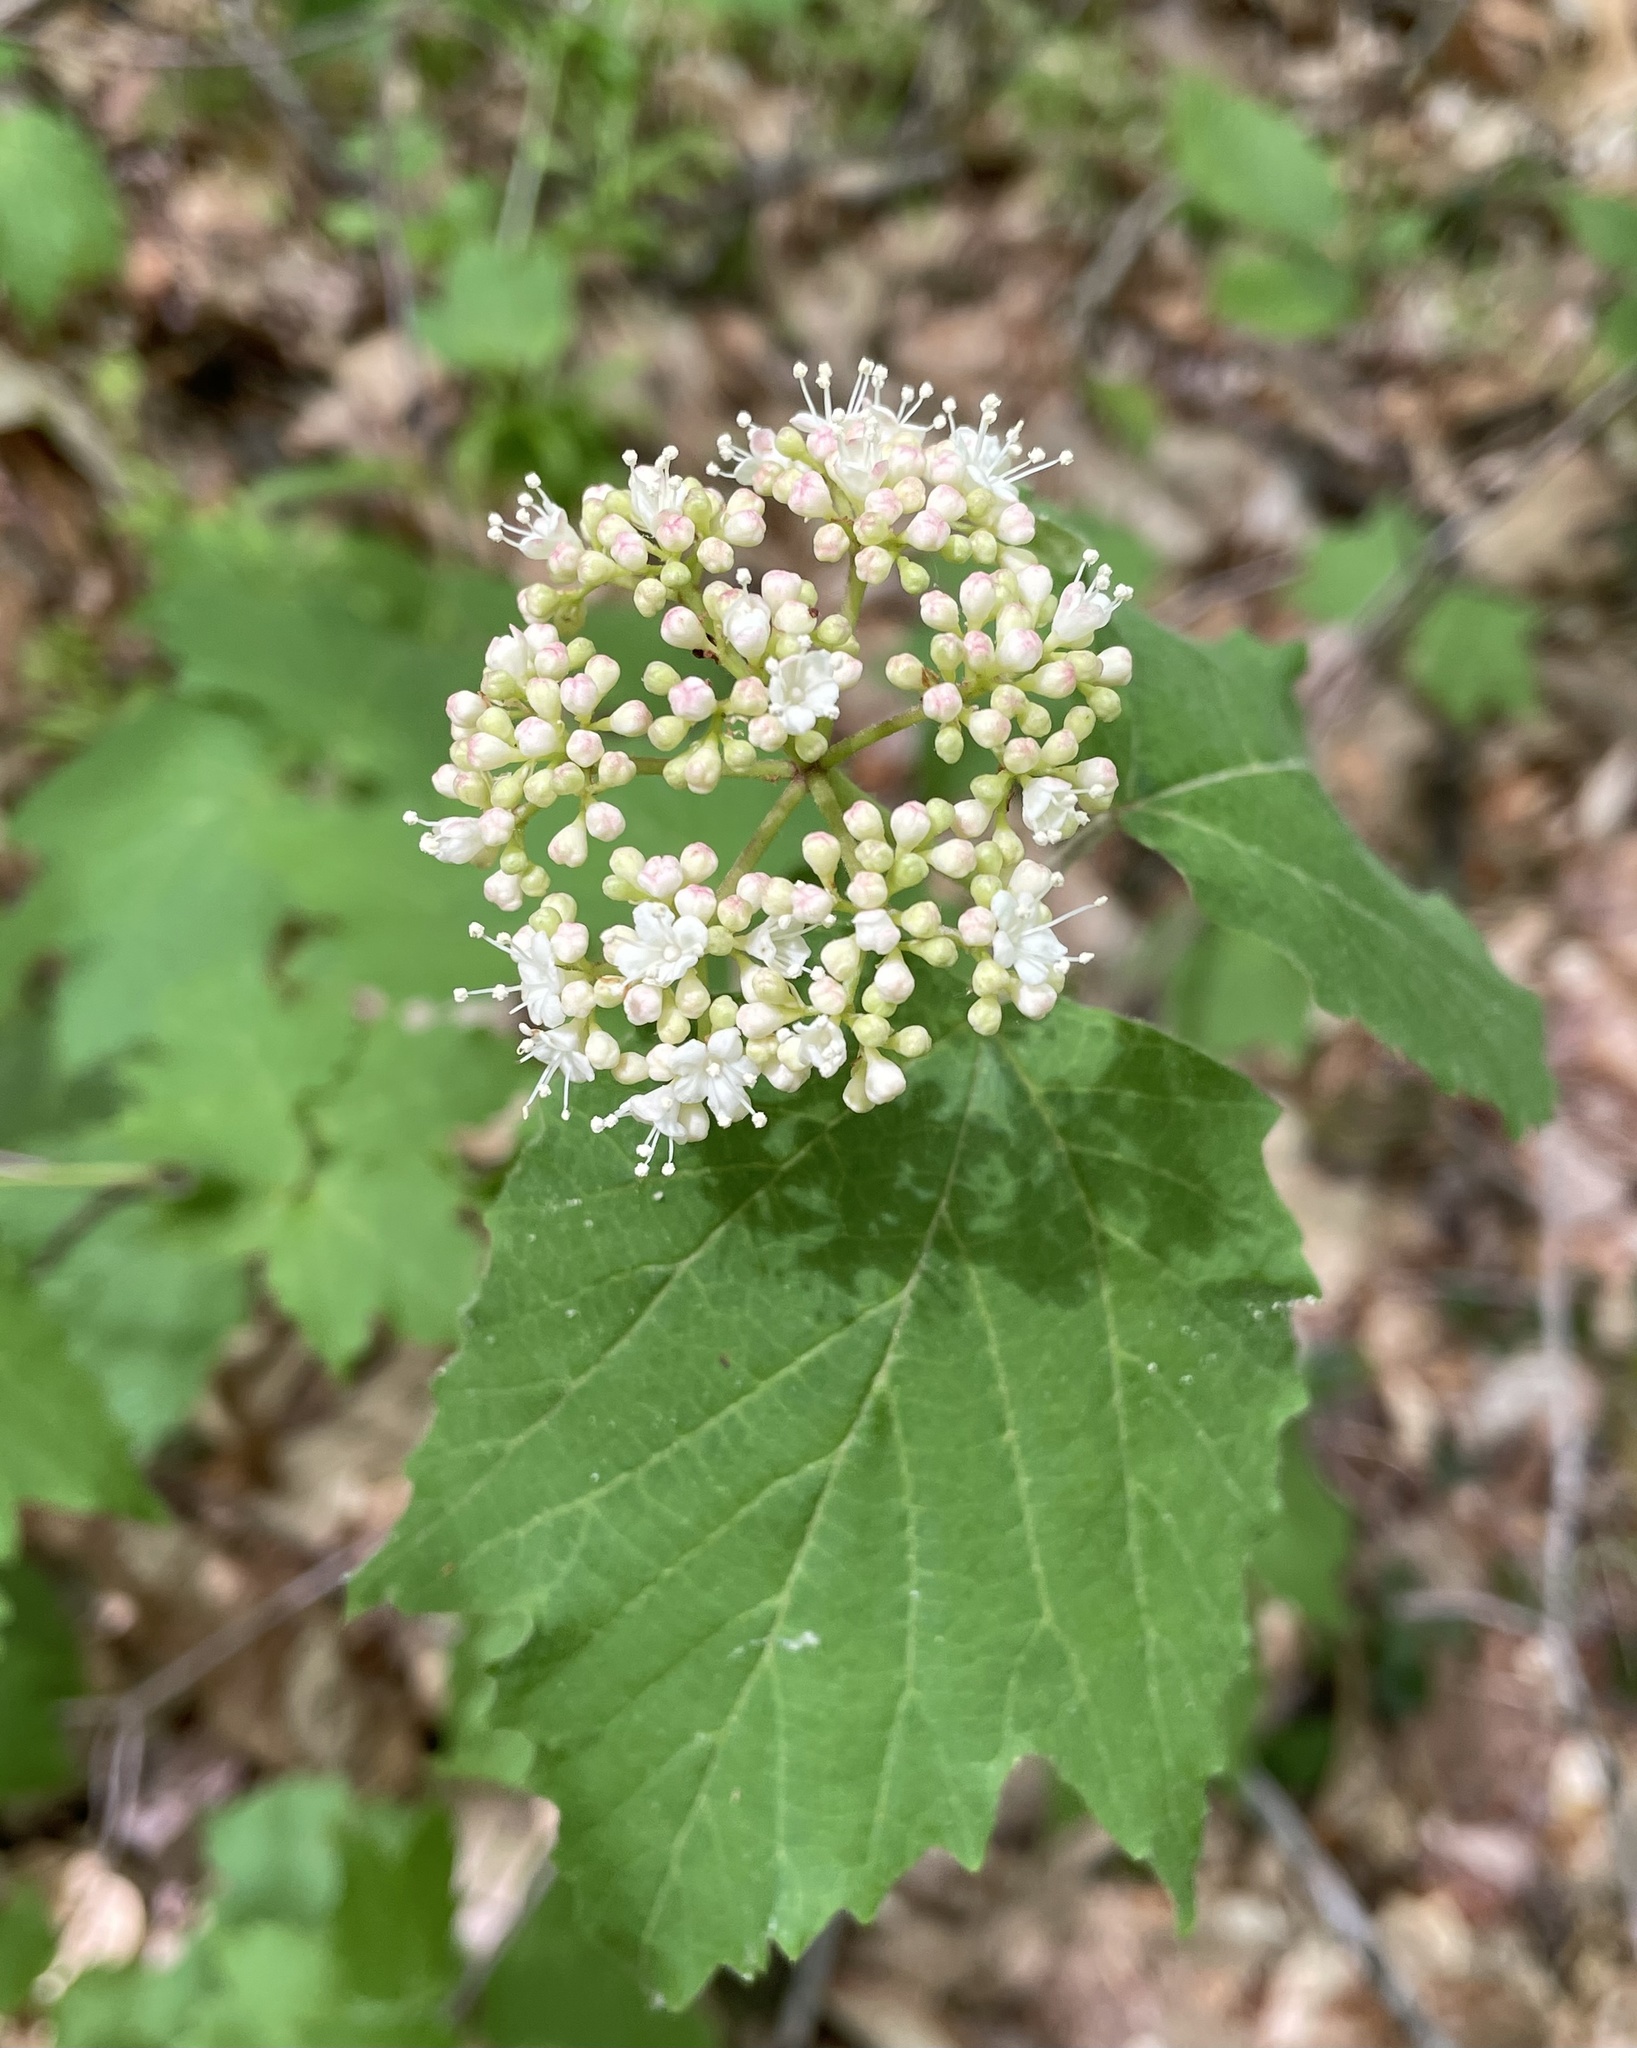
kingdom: Plantae
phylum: Tracheophyta
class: Magnoliopsida
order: Dipsacales
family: Viburnaceae
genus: Viburnum
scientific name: Viburnum acerifolium
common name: Dockmackie
